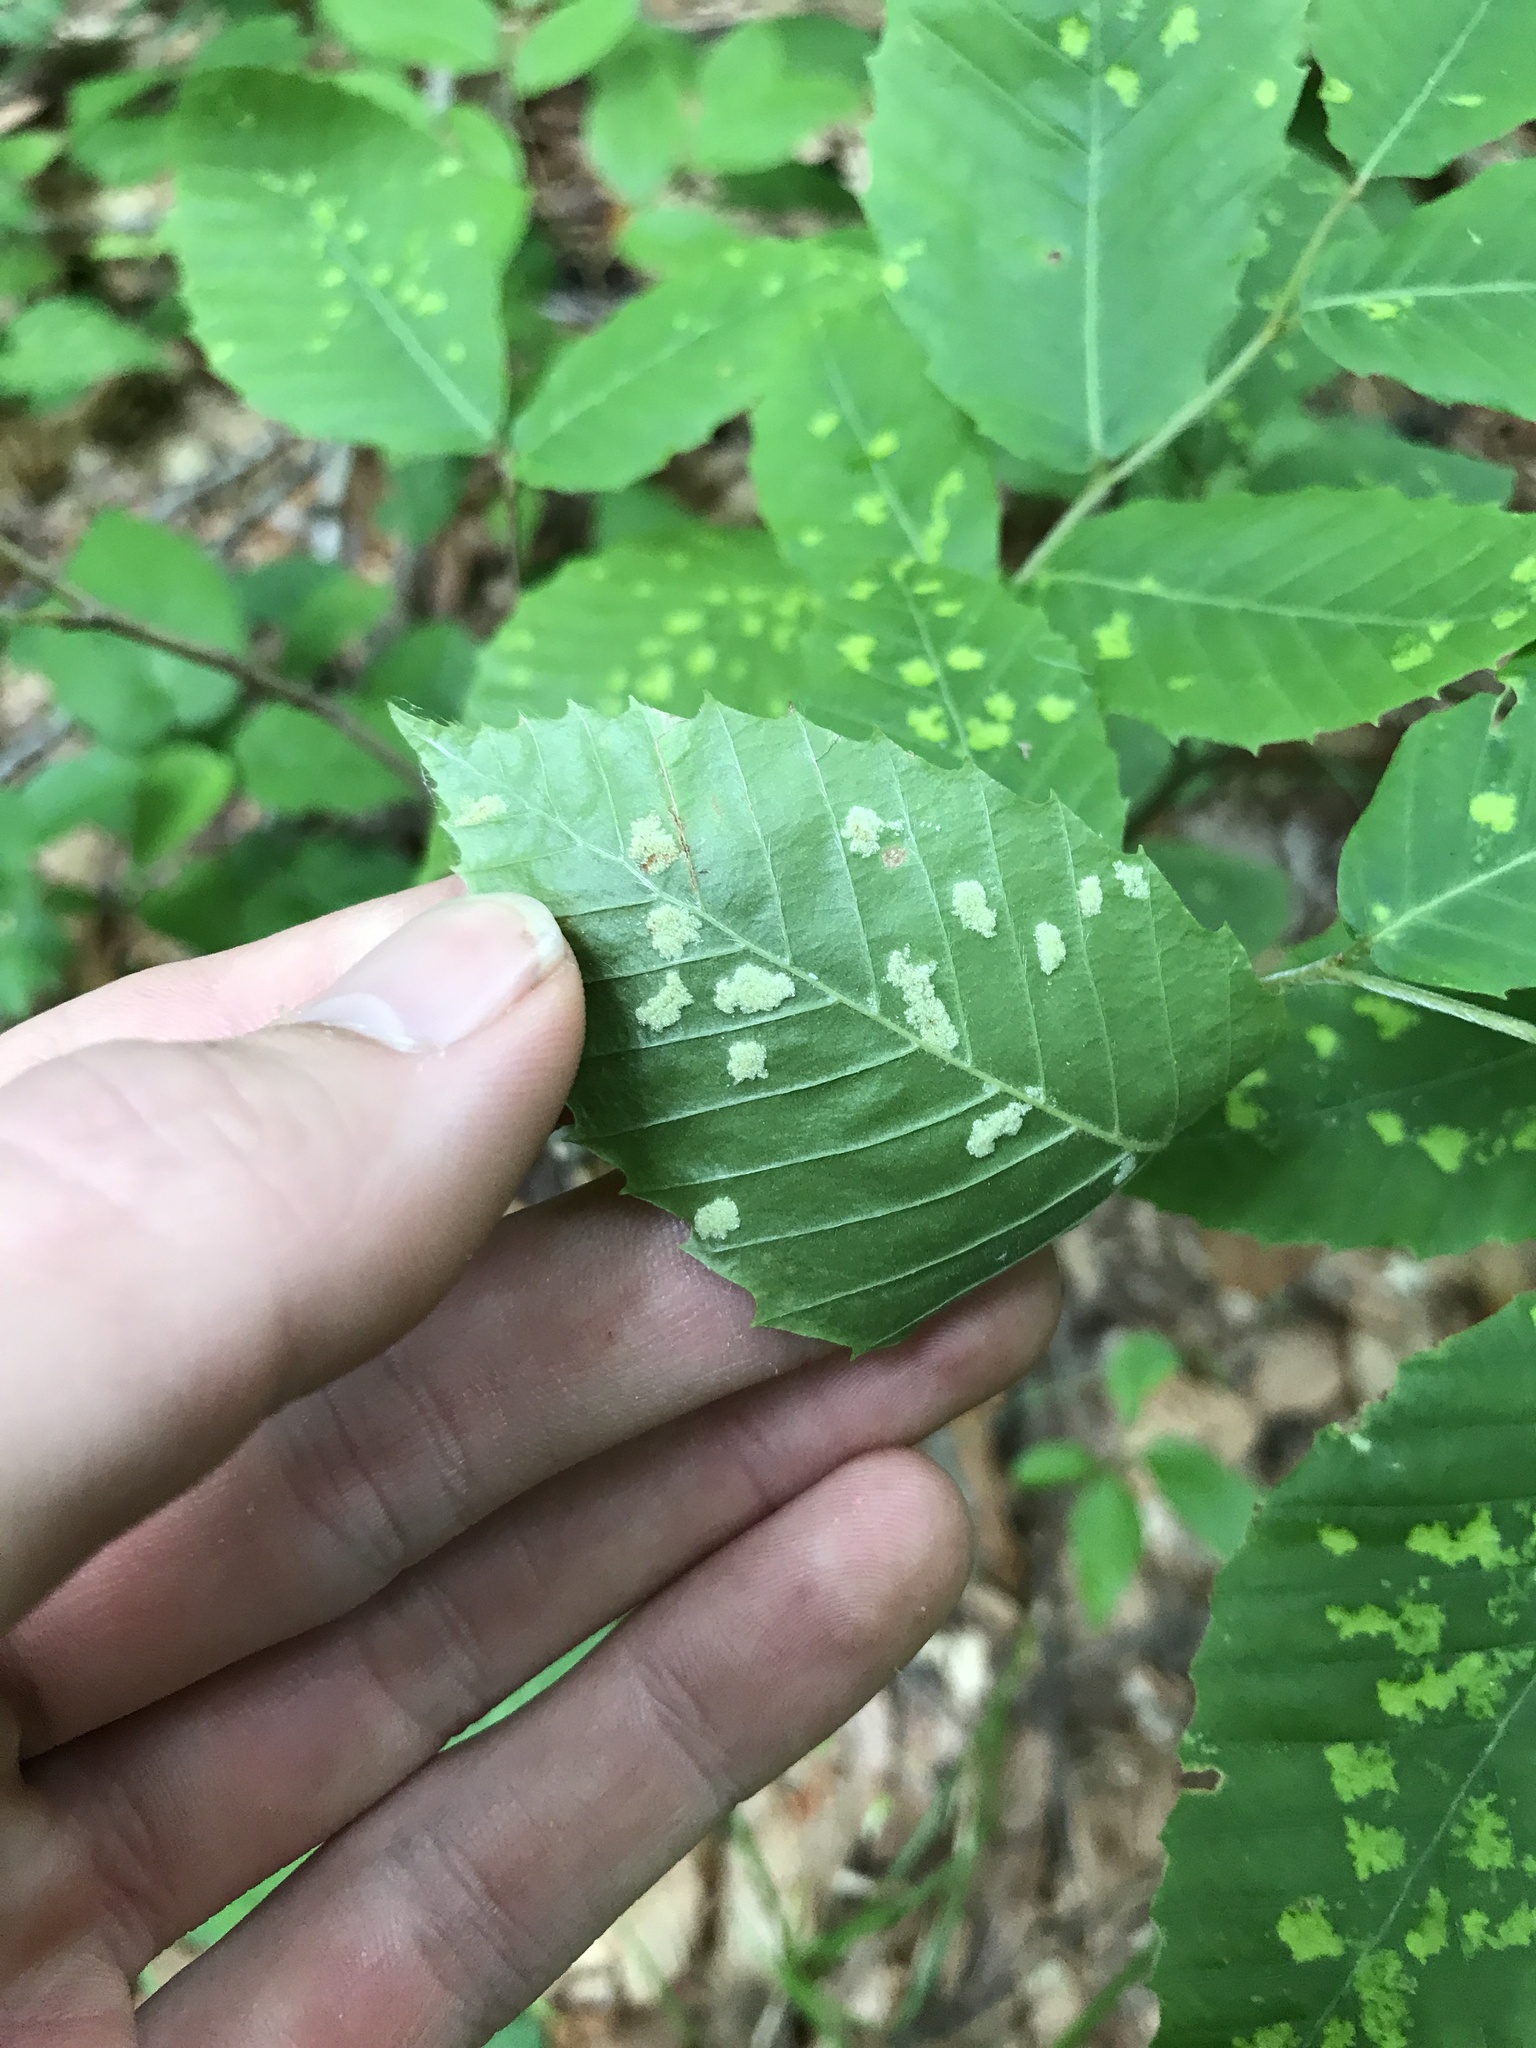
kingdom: Animalia
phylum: Arthropoda
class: Arachnida
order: Trombidiformes
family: Eriophyidae
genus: Acalitus
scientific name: Acalitus
